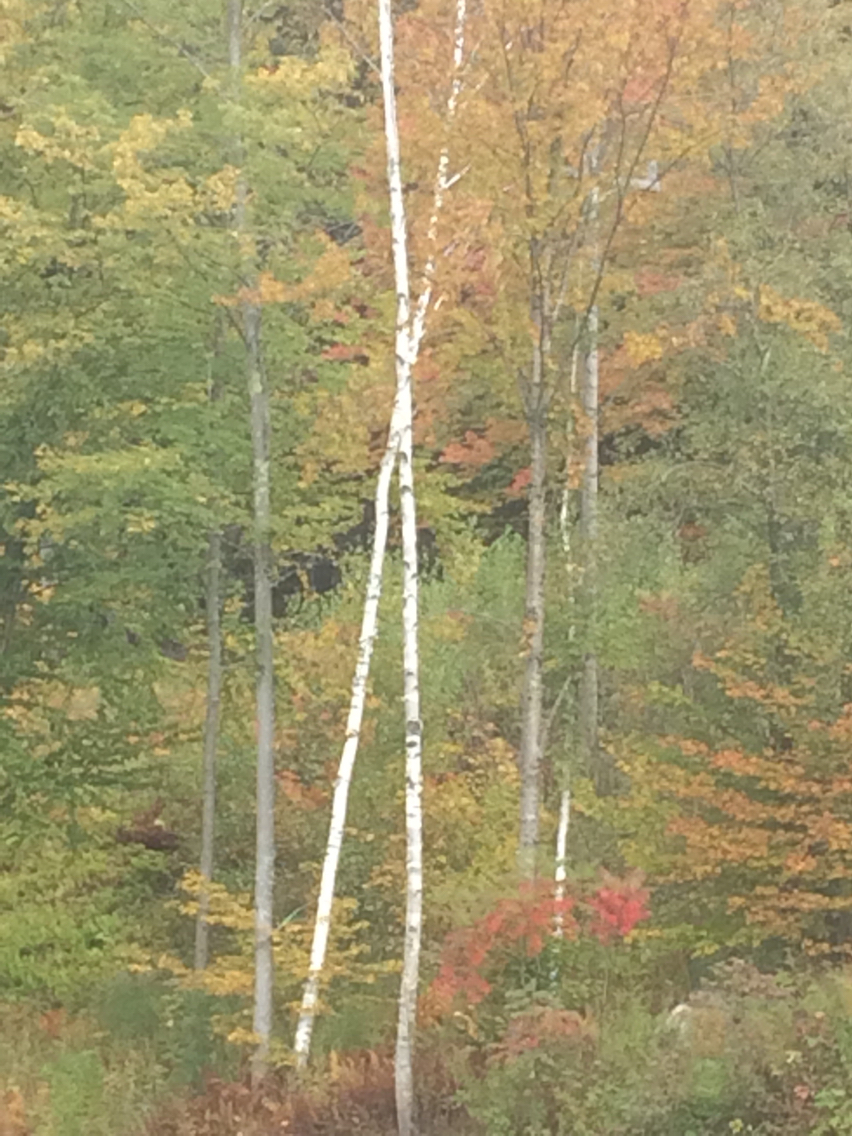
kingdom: Plantae
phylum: Tracheophyta
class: Magnoliopsida
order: Fagales
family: Betulaceae
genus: Betula
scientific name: Betula papyrifera
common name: Paper birch
